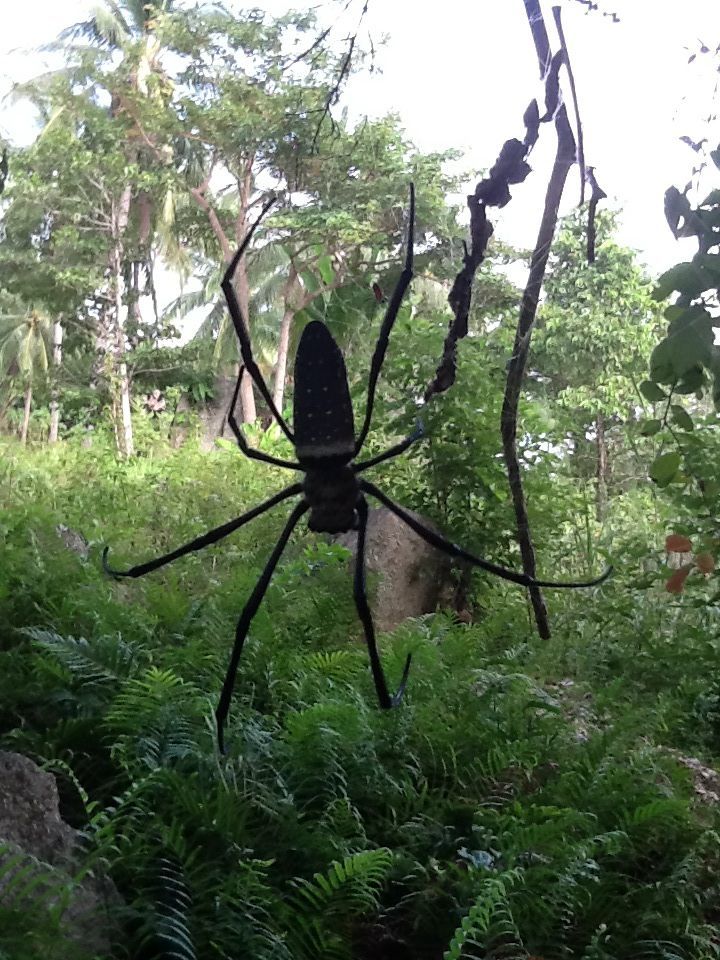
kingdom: Animalia
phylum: Arthropoda
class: Arachnida
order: Araneae
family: Araneidae
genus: Trichonephila
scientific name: Trichonephila antipodiana
